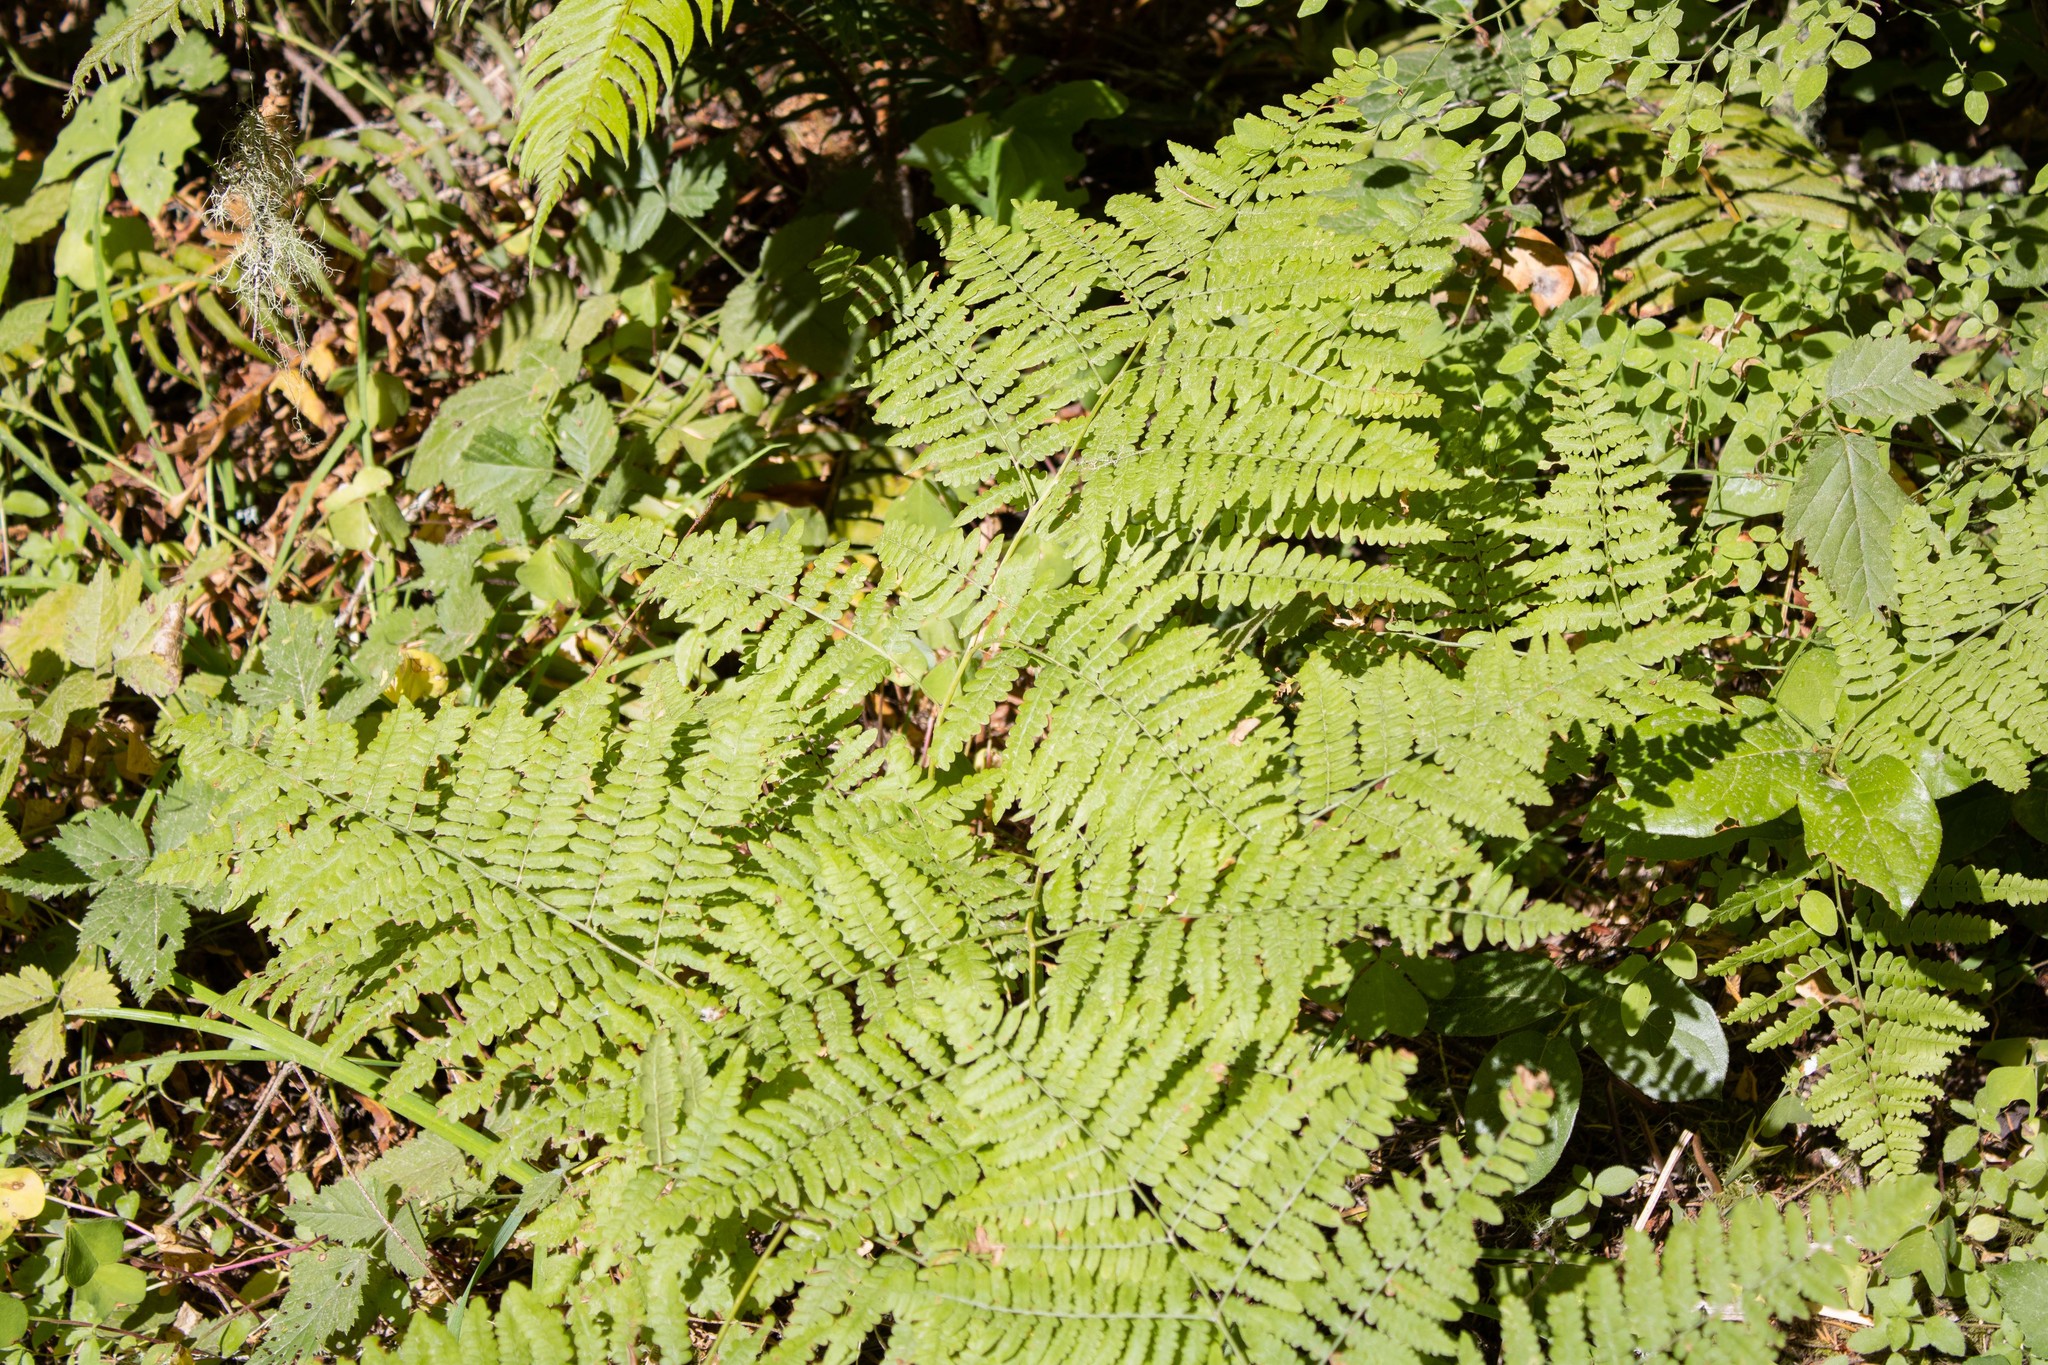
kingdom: Plantae
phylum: Tracheophyta
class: Polypodiopsida
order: Polypodiales
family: Dennstaedtiaceae
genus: Pteridium
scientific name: Pteridium aquilinum
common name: Bracken
